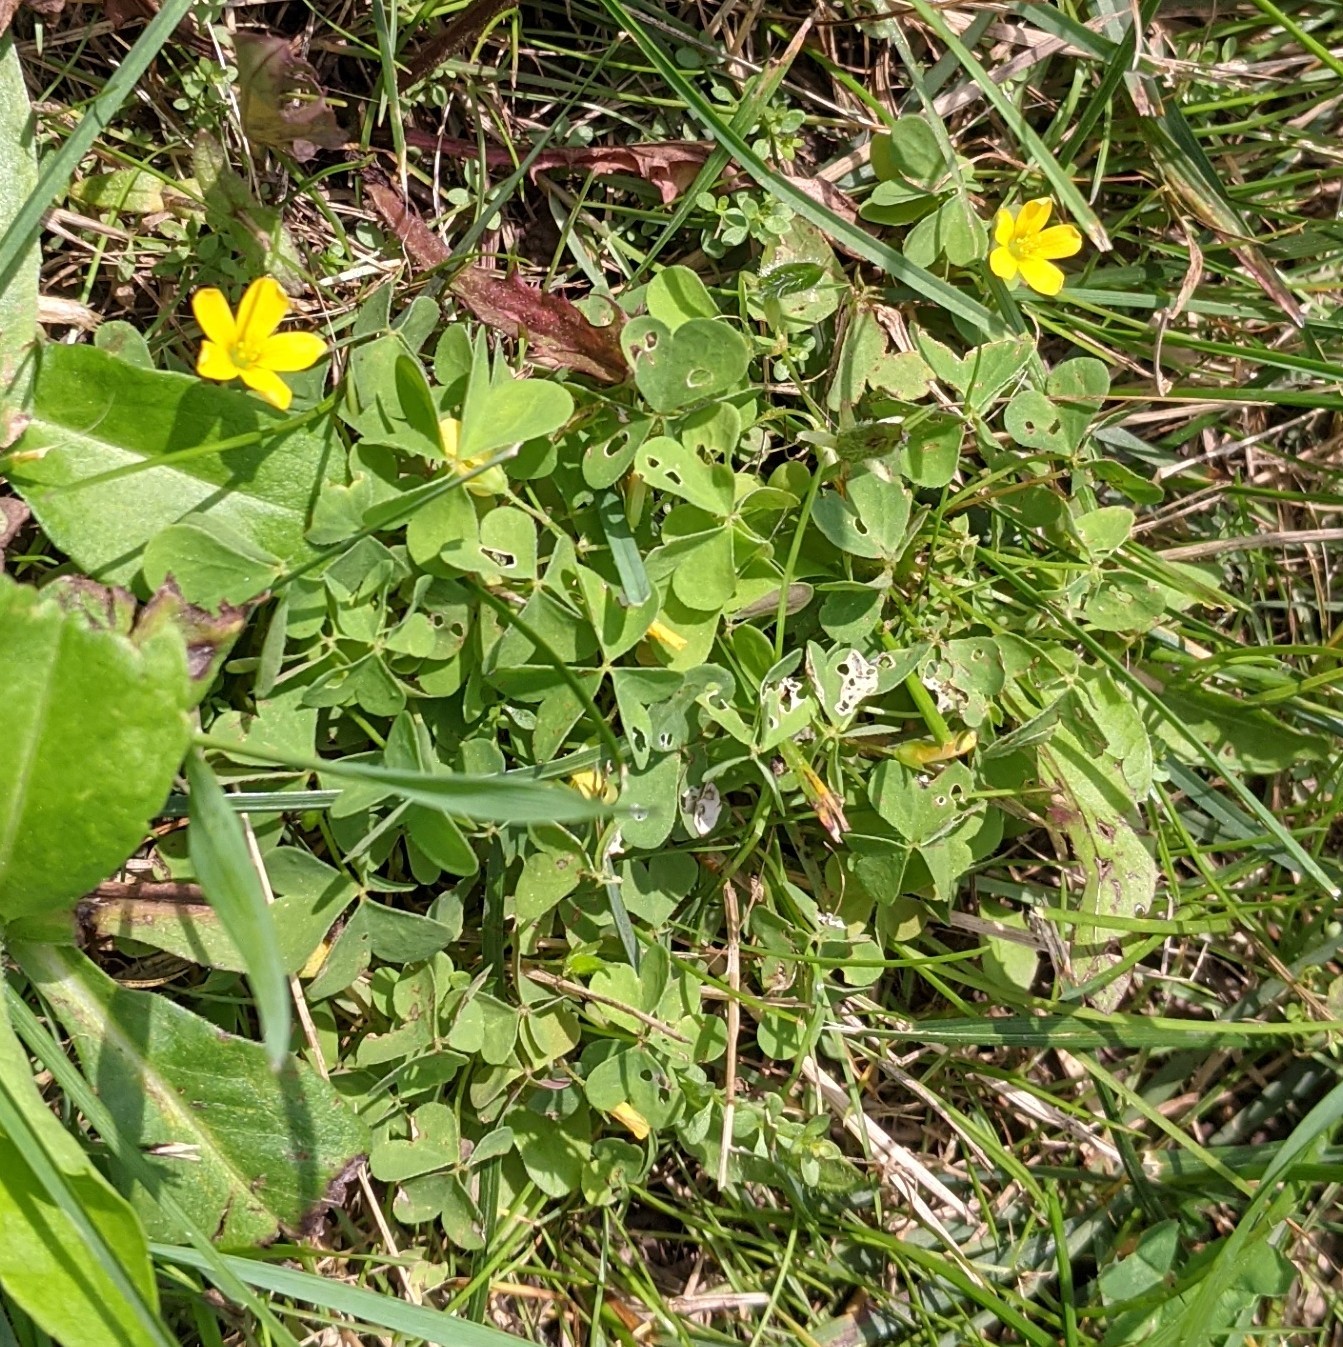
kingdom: Plantae
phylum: Tracheophyta
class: Magnoliopsida
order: Oxalidales
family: Oxalidaceae
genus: Oxalis
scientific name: Oxalis stricta
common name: Upright yellow-sorrel
